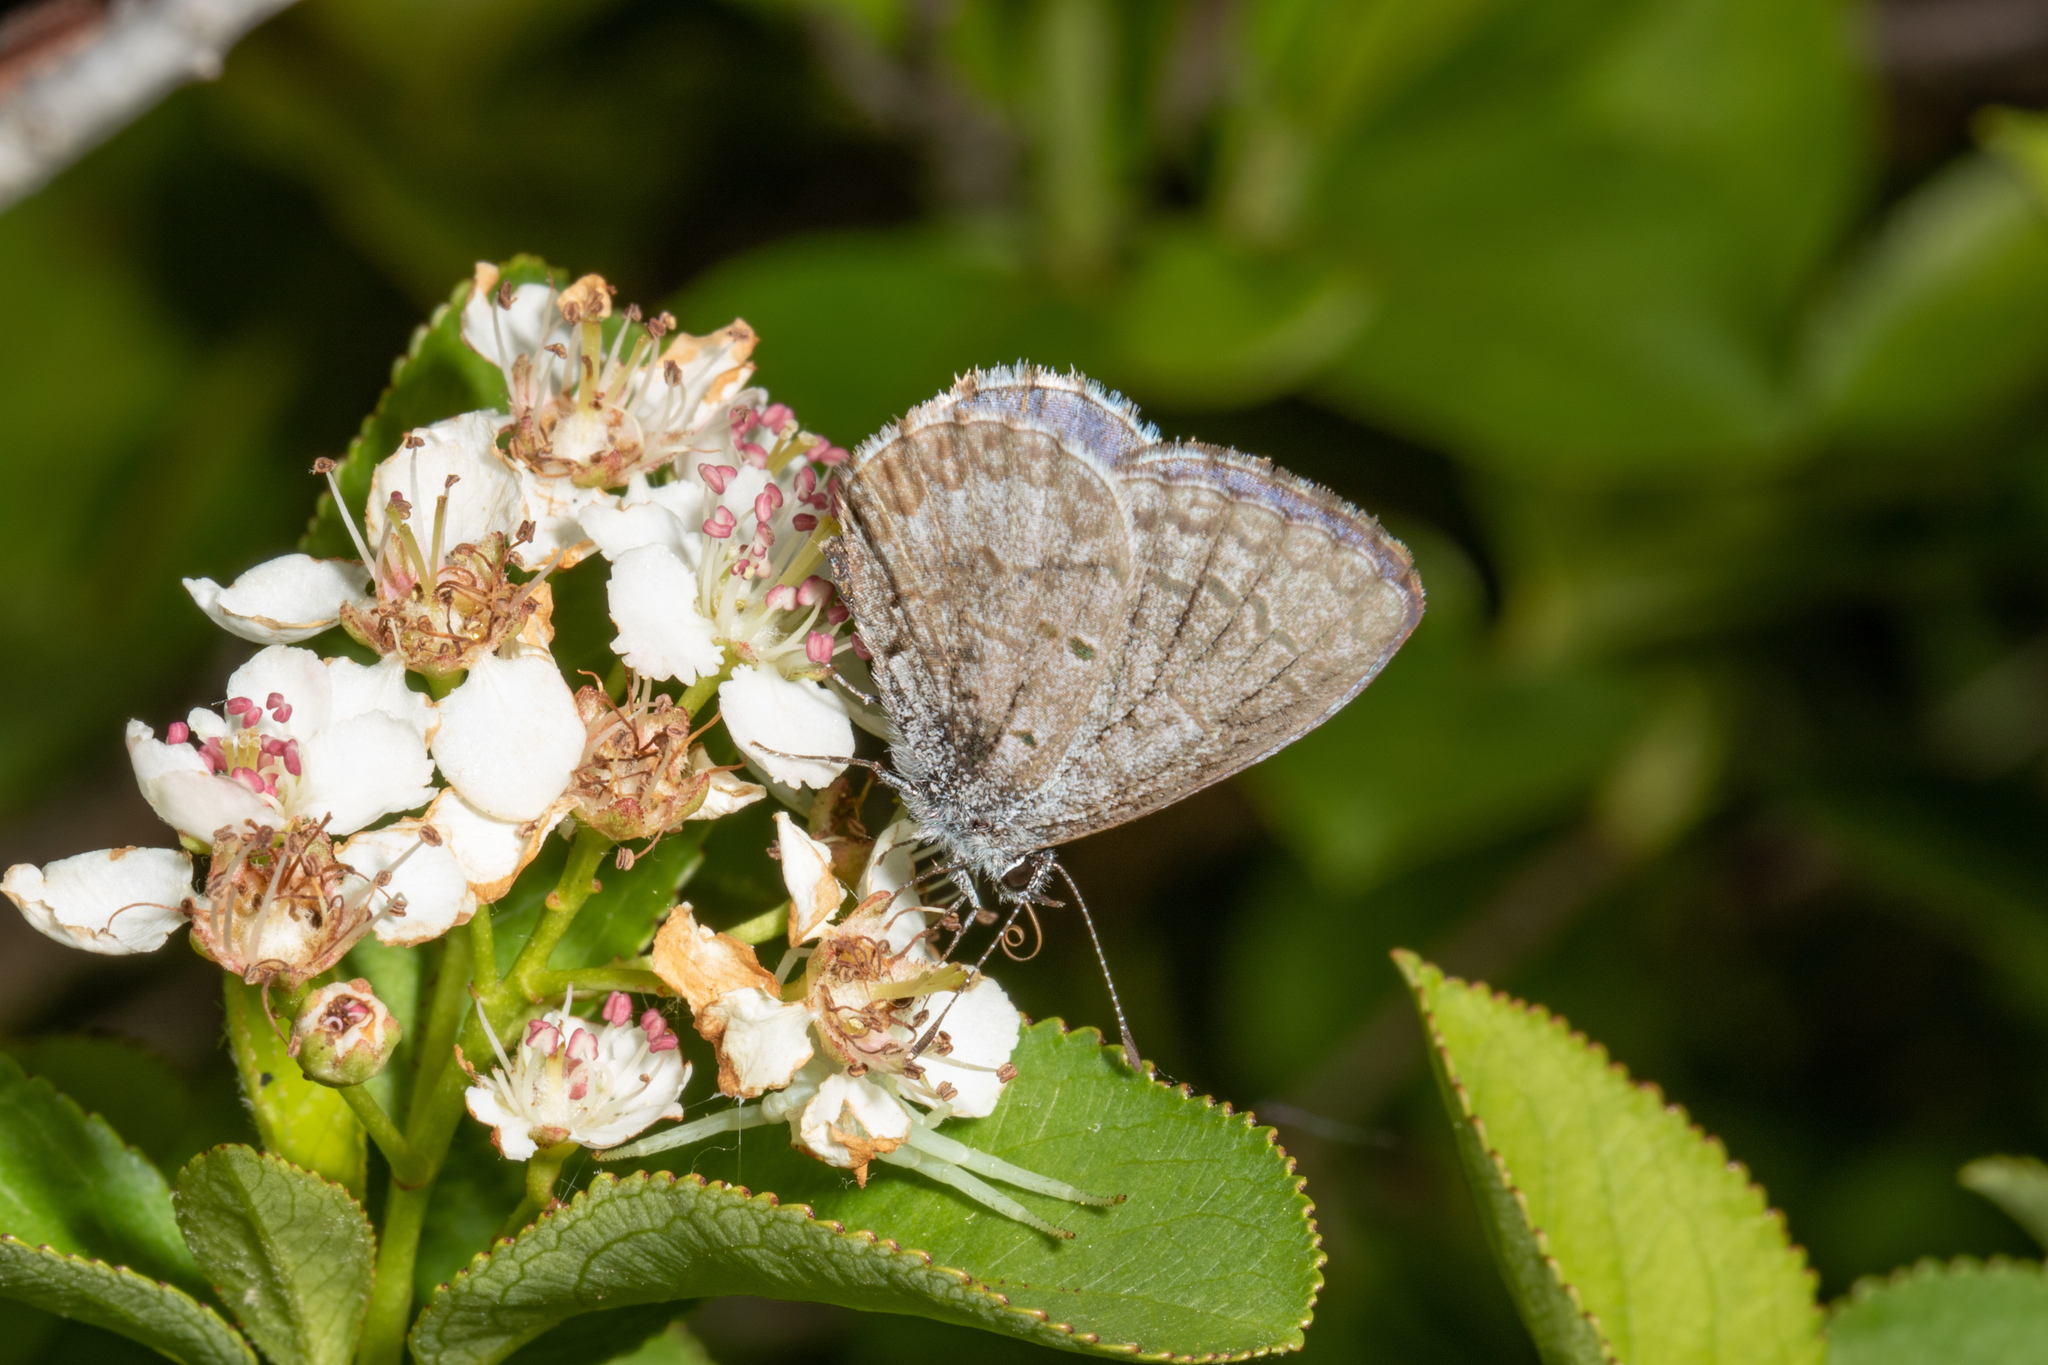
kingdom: Animalia
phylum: Arthropoda
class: Insecta
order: Lepidoptera
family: Lycaenidae
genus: Celastrina
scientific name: Celastrina lucia
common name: Lucia azure
